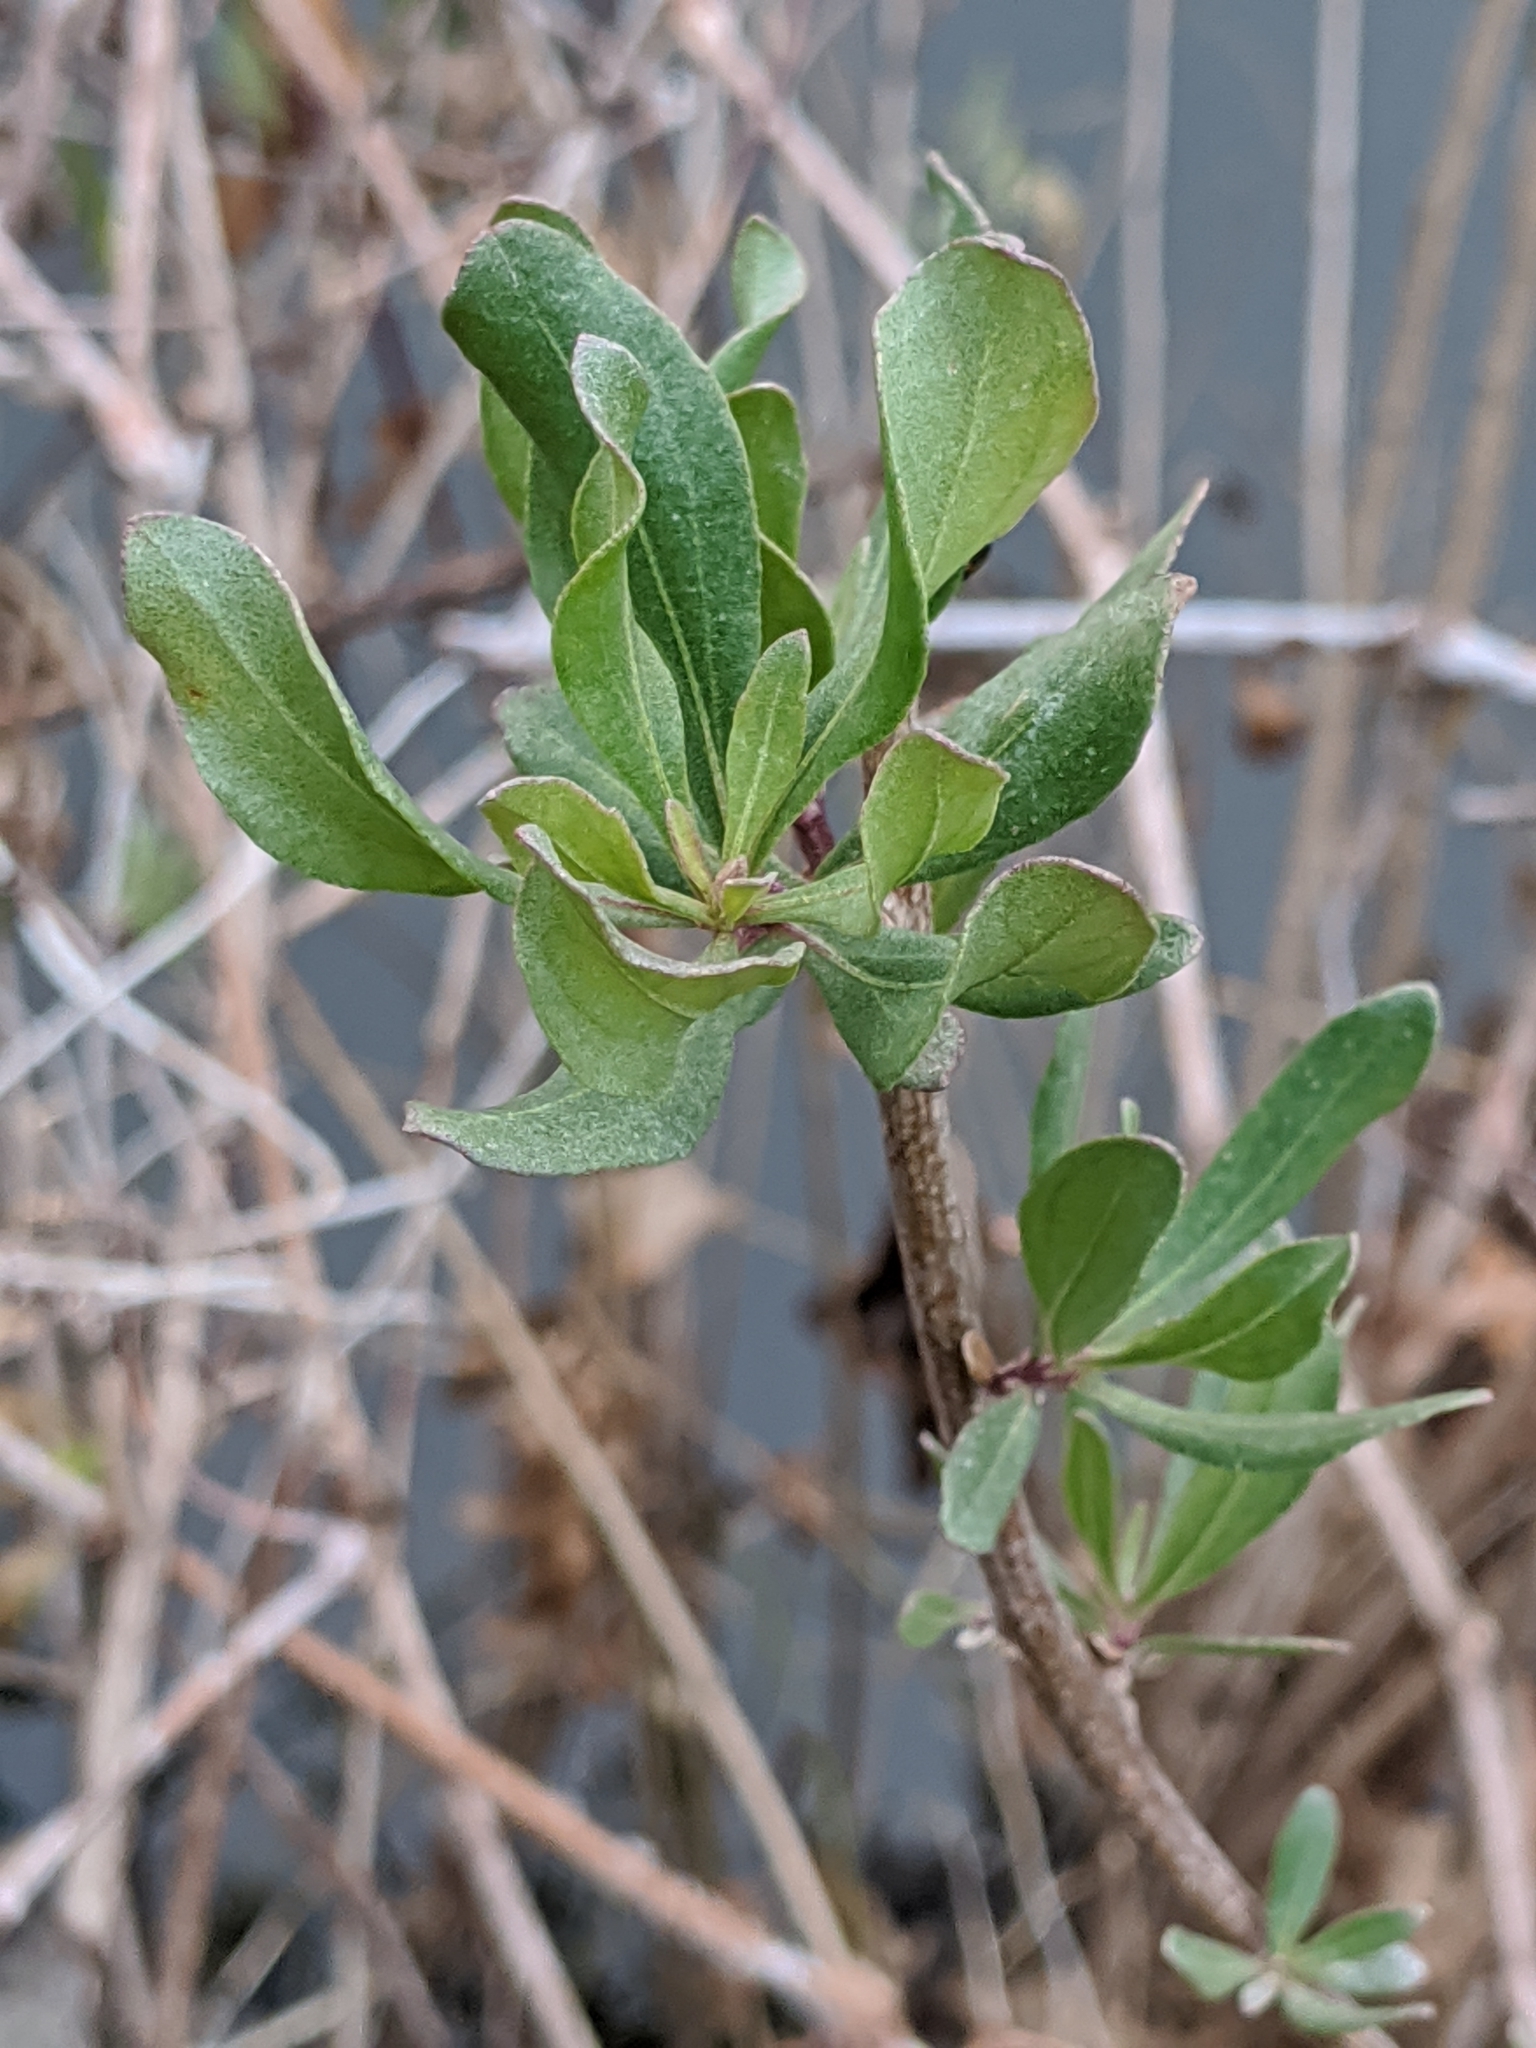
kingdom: Plantae
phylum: Tracheophyta
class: Magnoliopsida
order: Asterales
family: Asteraceae
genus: Baccharis
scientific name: Baccharis halimifolia
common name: Eastern baccharis
